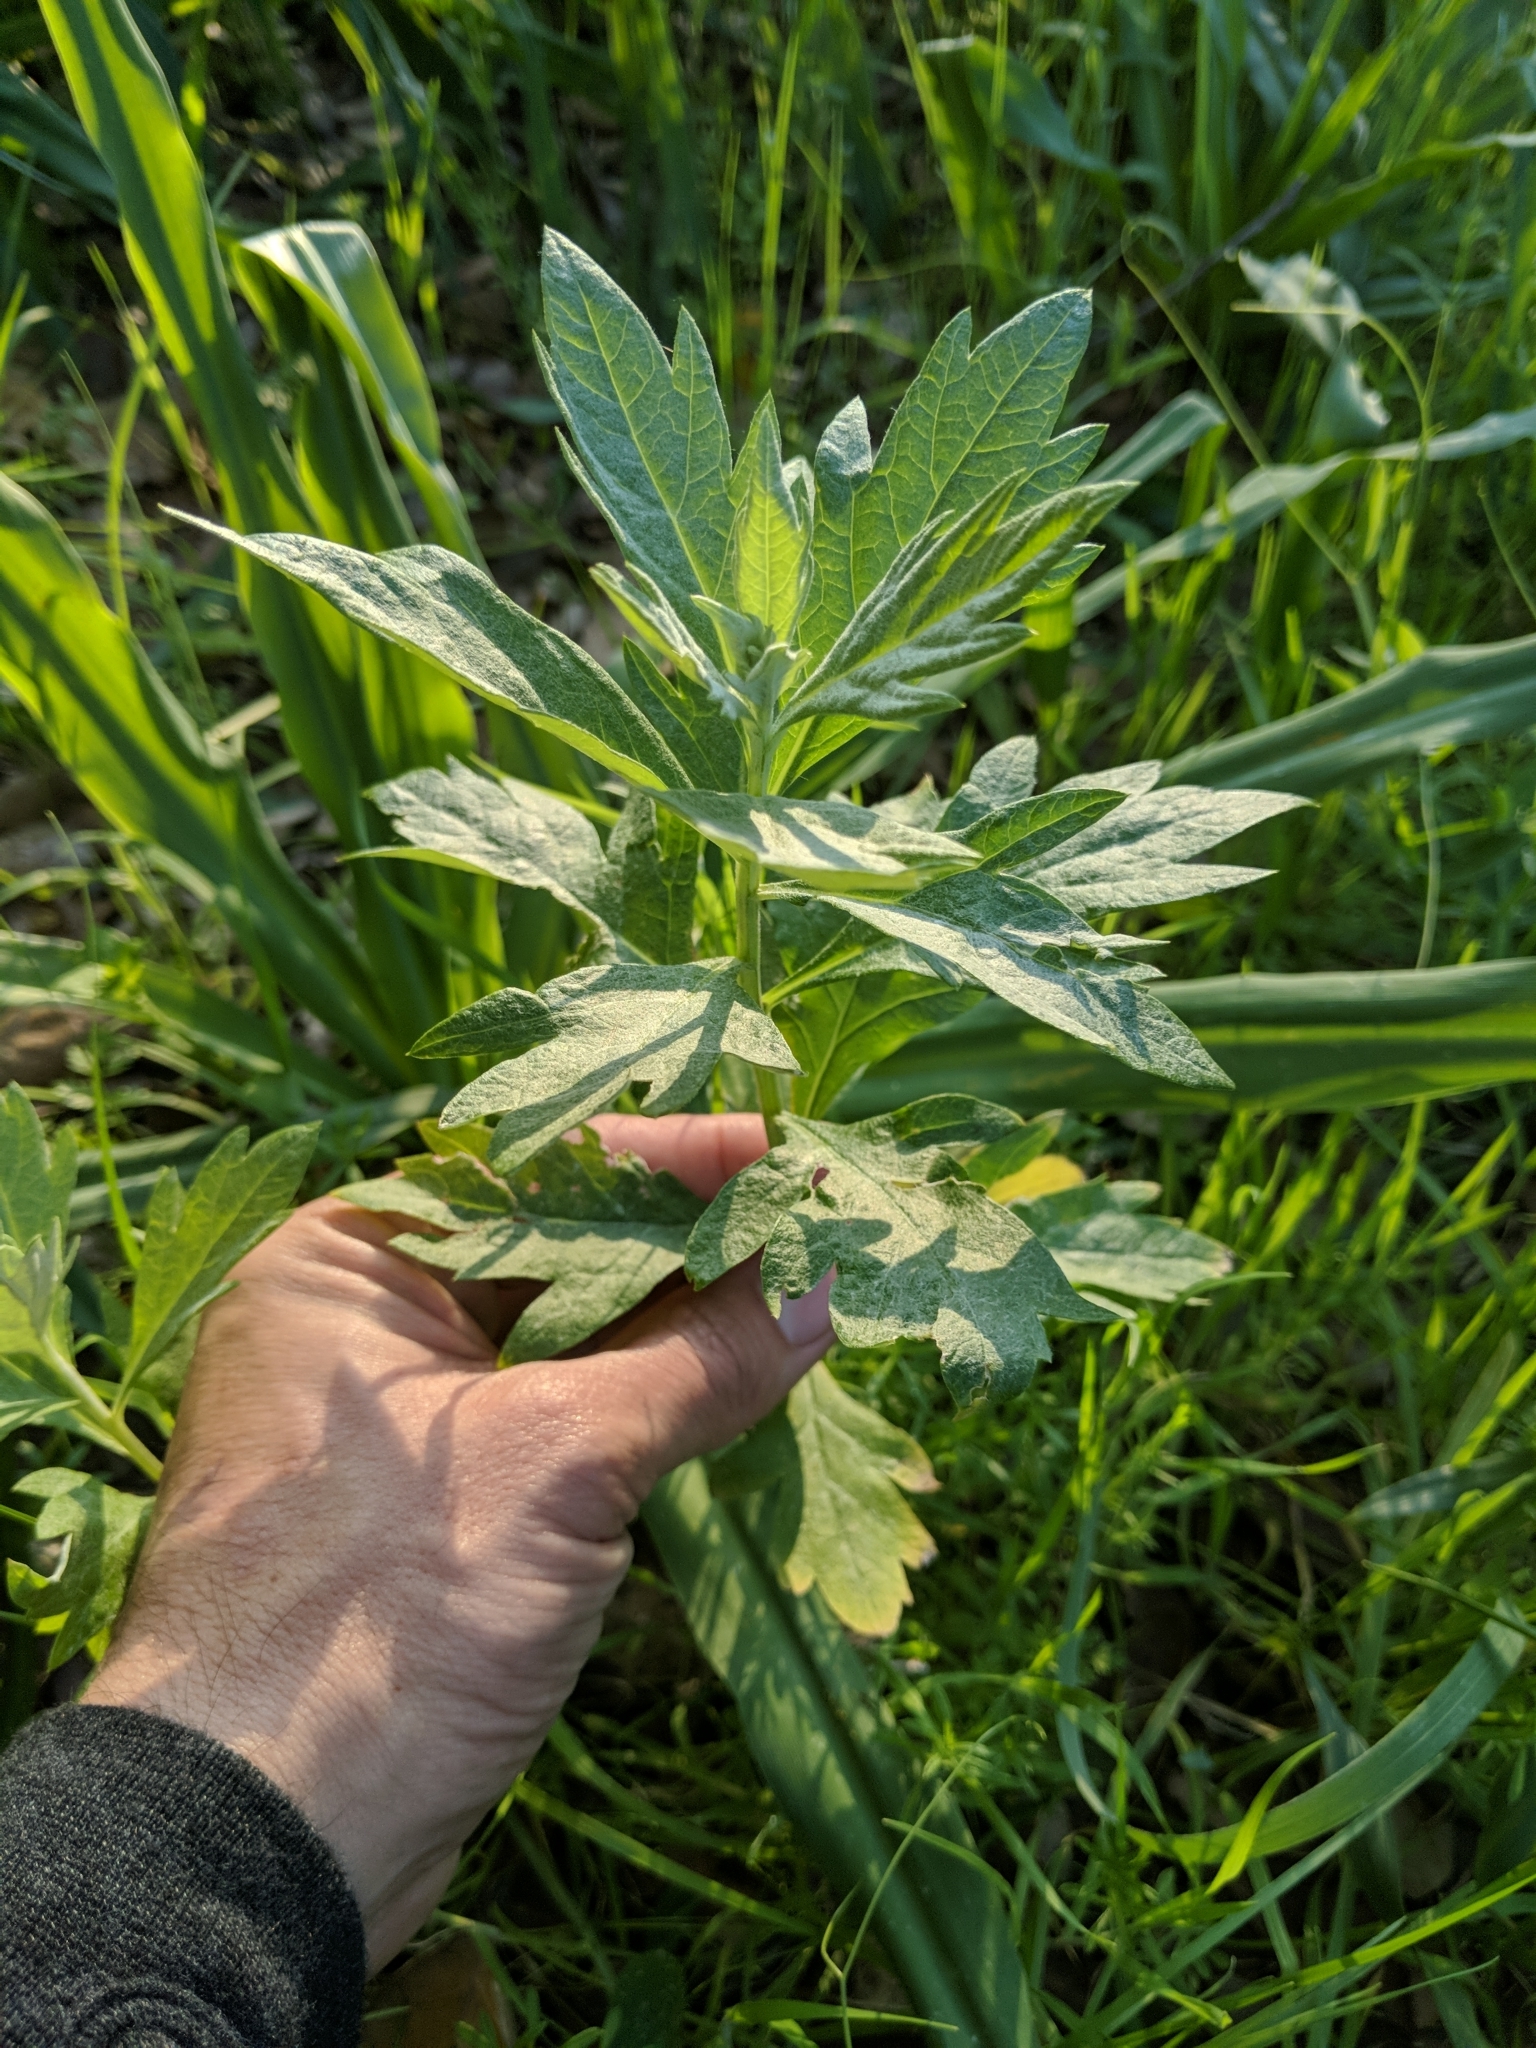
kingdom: Plantae
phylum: Tracheophyta
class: Magnoliopsida
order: Asterales
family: Asteraceae
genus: Artemisia
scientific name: Artemisia douglasiana
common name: Northwest mugwort
